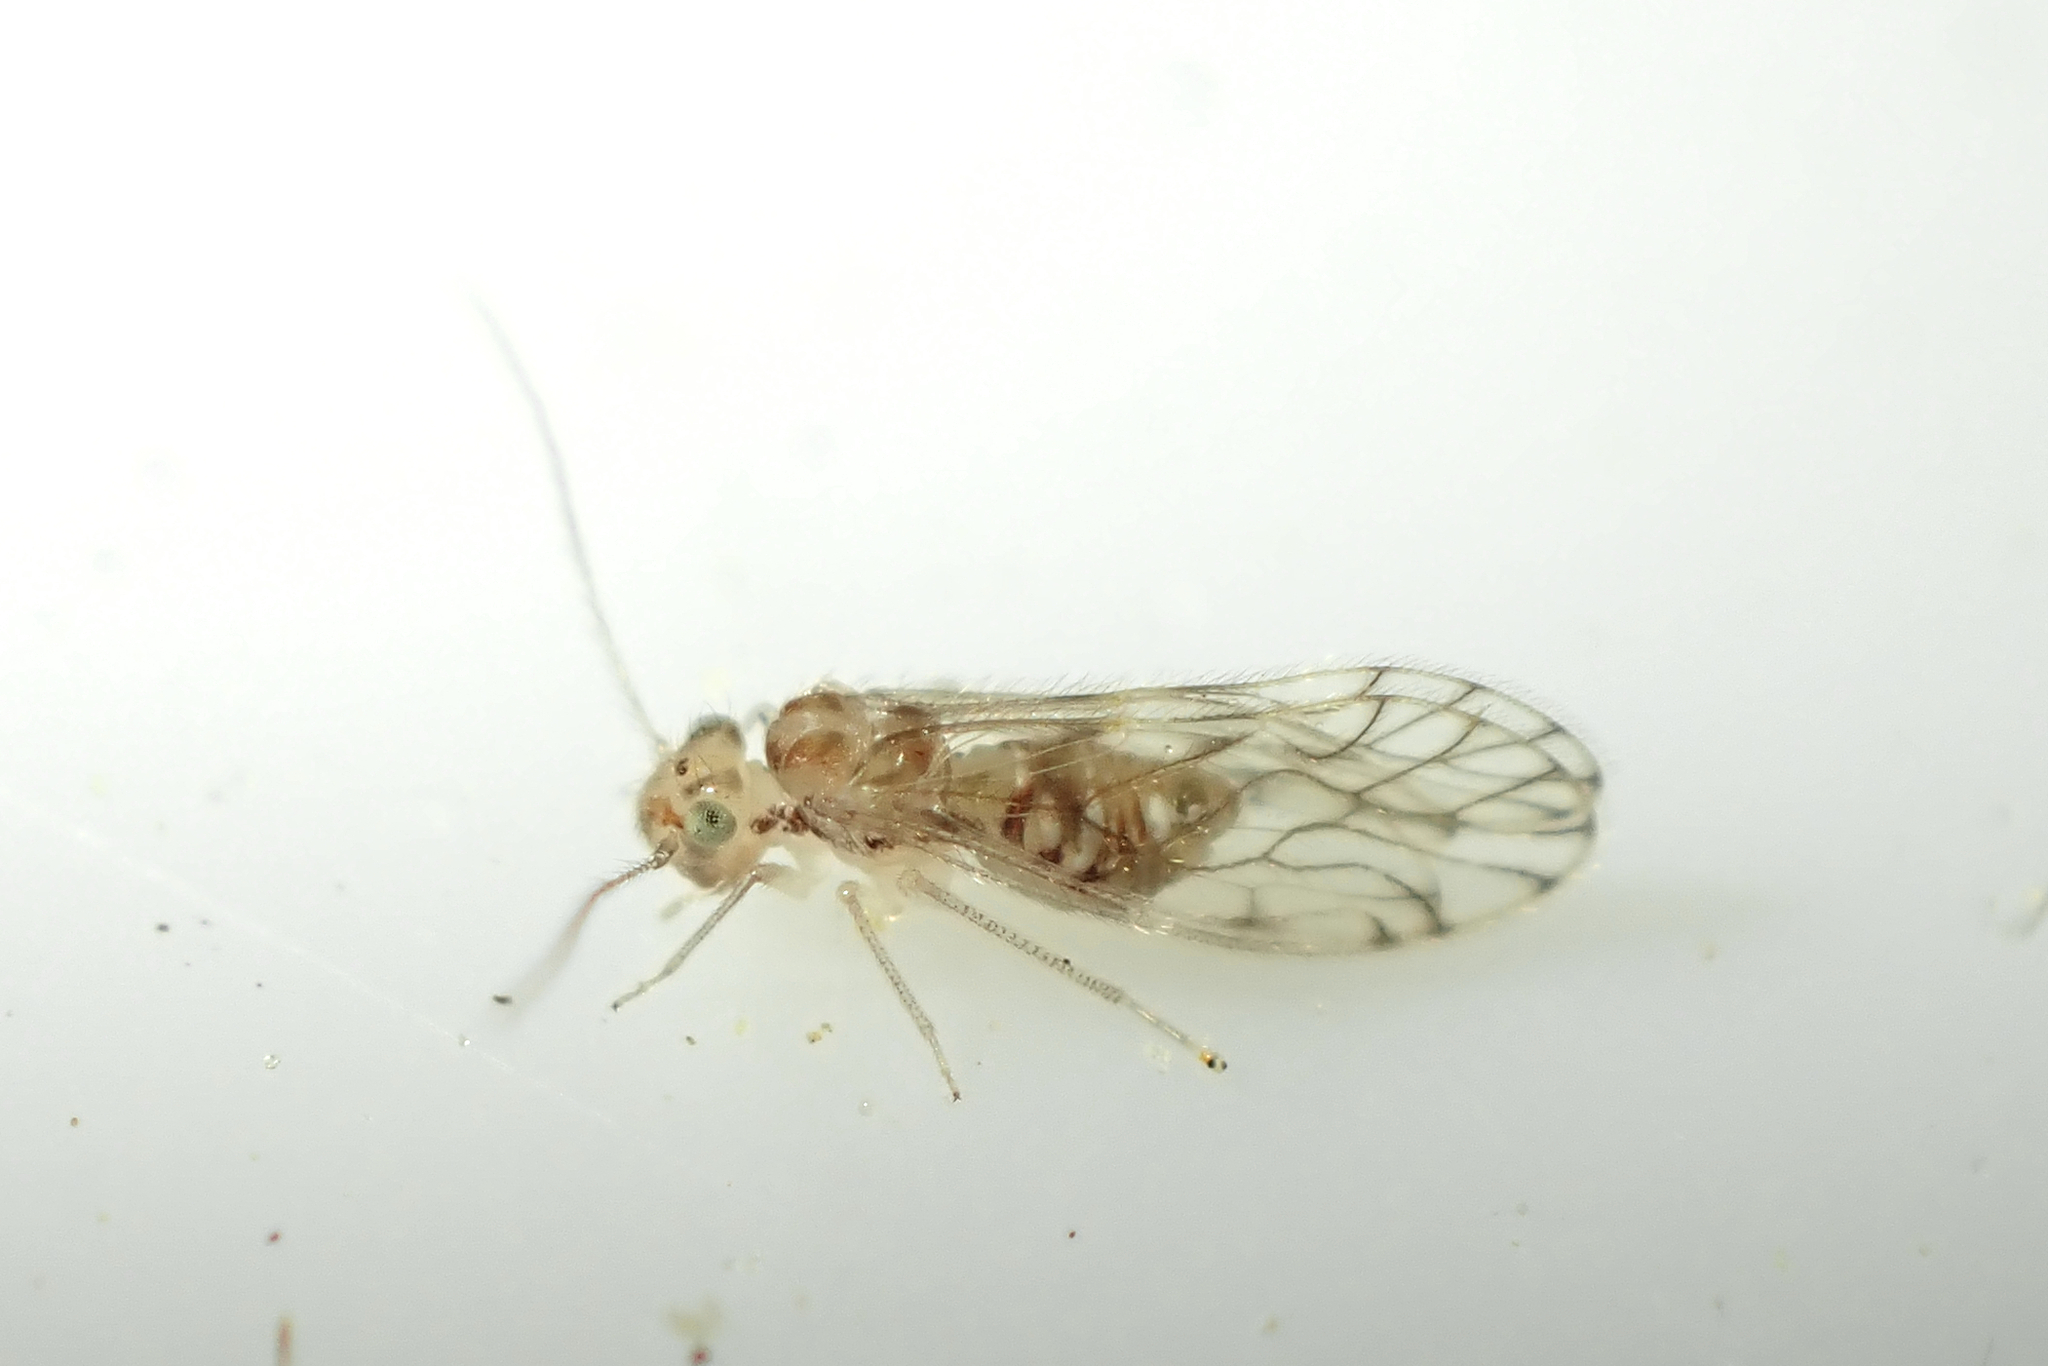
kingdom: Animalia
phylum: Arthropoda
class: Insecta
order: Psocodea
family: Pseudocaeciliidae
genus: Lobocaecilius
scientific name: Lobocaecilius monicus
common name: Barklice
